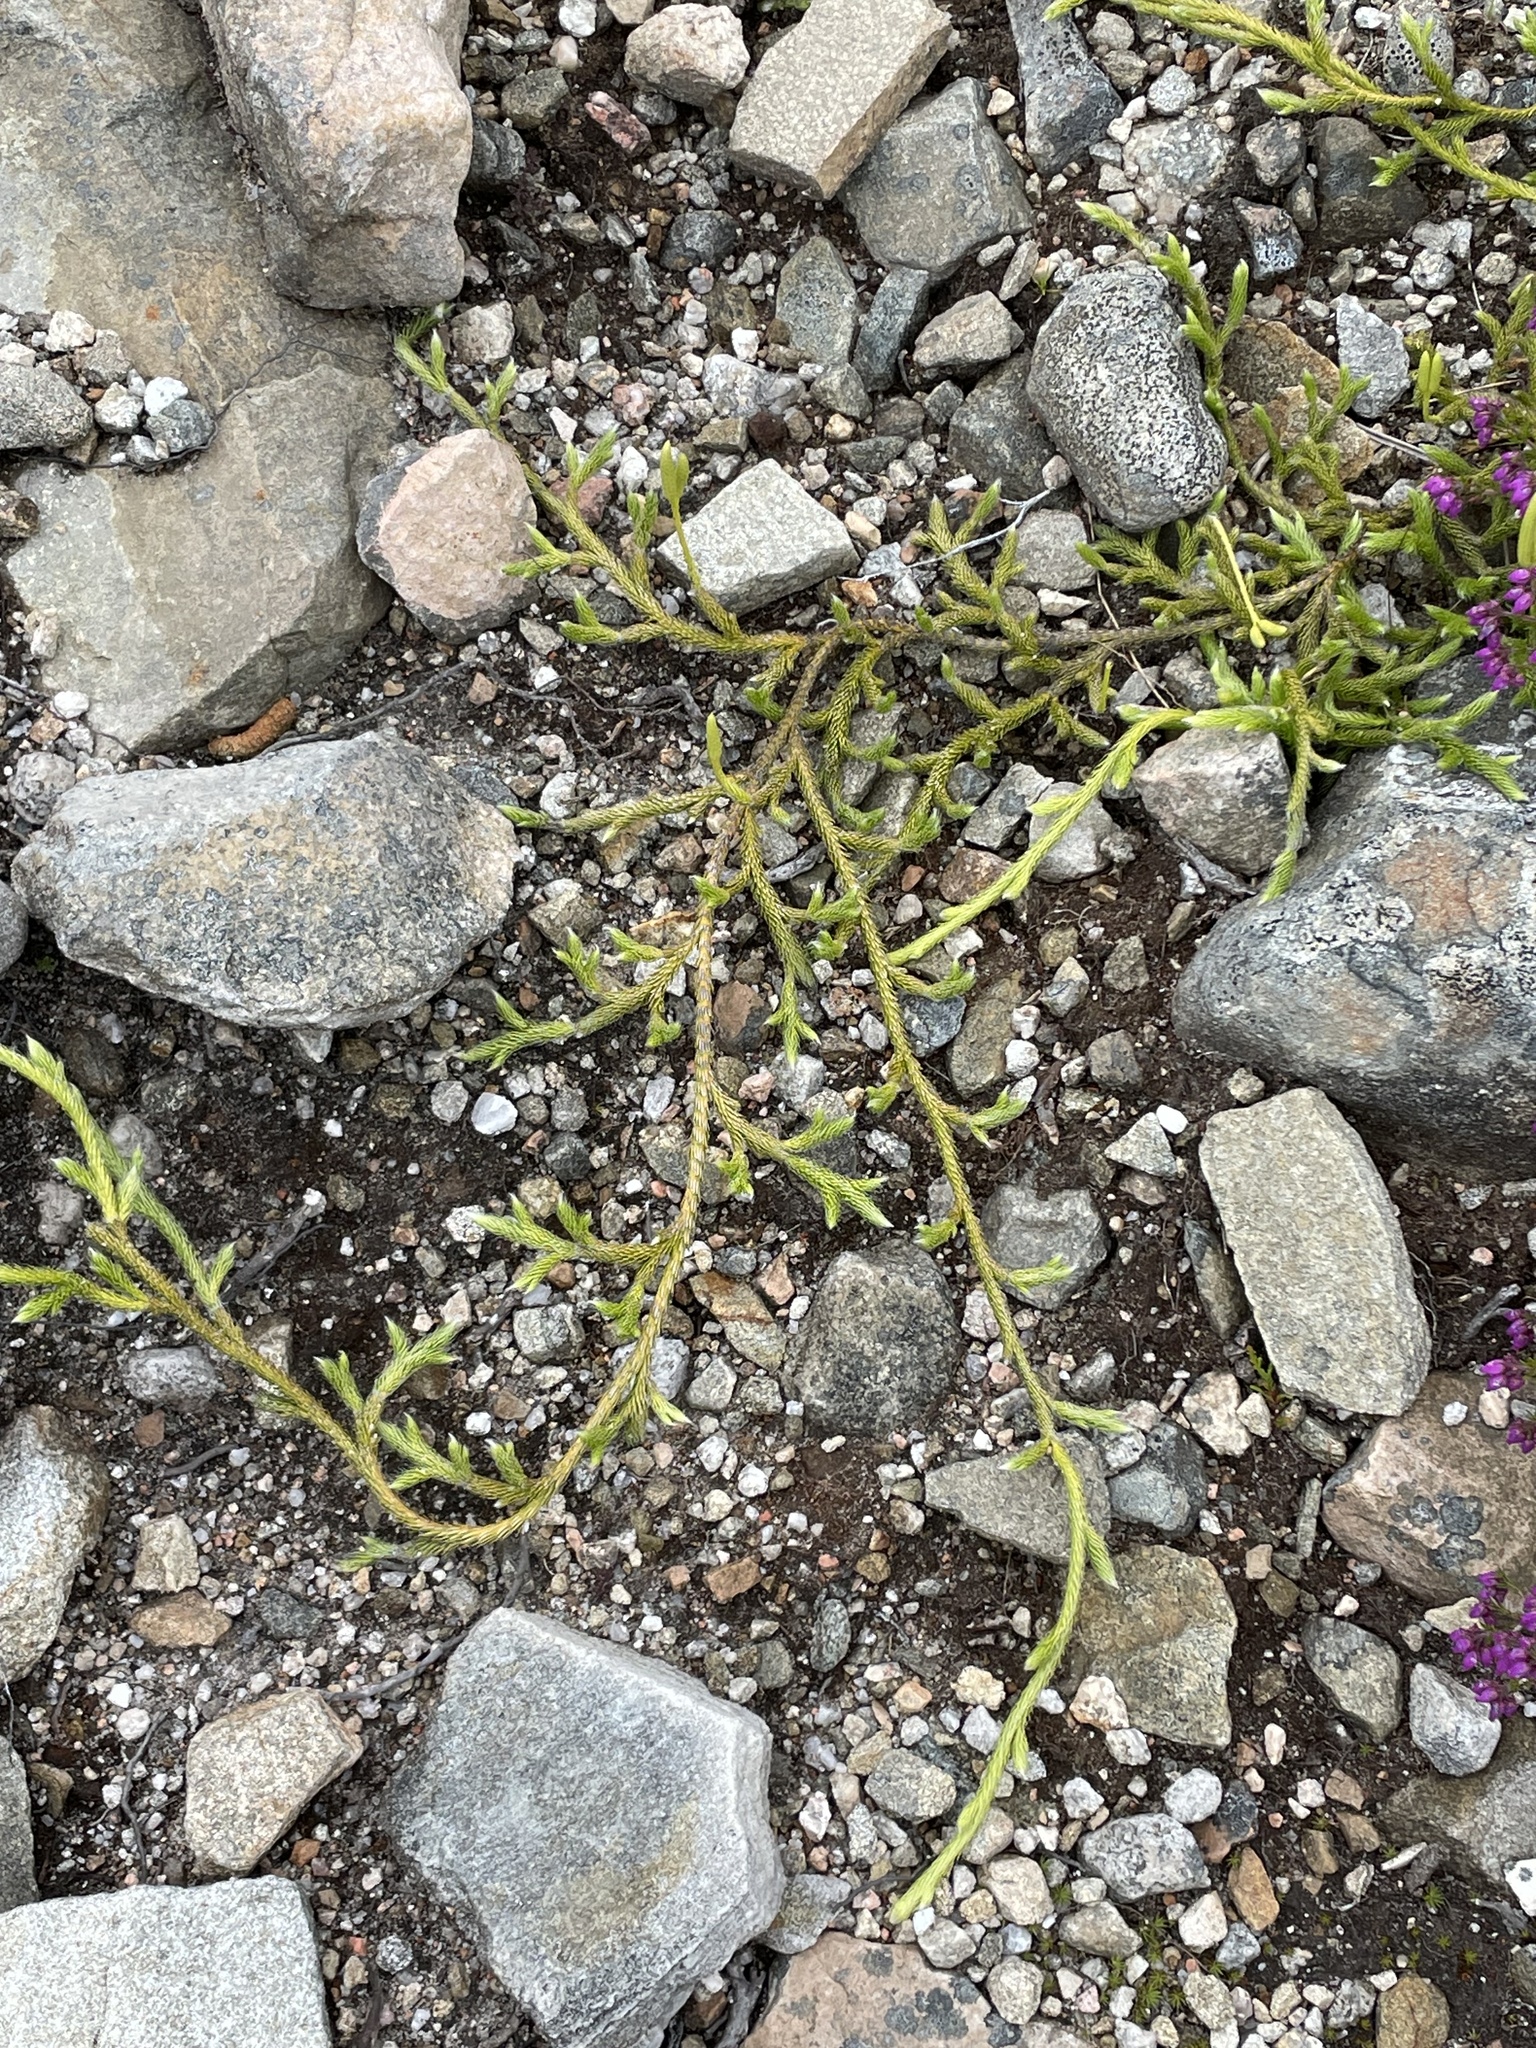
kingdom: Plantae
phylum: Tracheophyta
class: Lycopodiopsida
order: Lycopodiales
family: Lycopodiaceae
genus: Lycopodium
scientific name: Lycopodium clavatum
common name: Stag's-horn clubmoss
